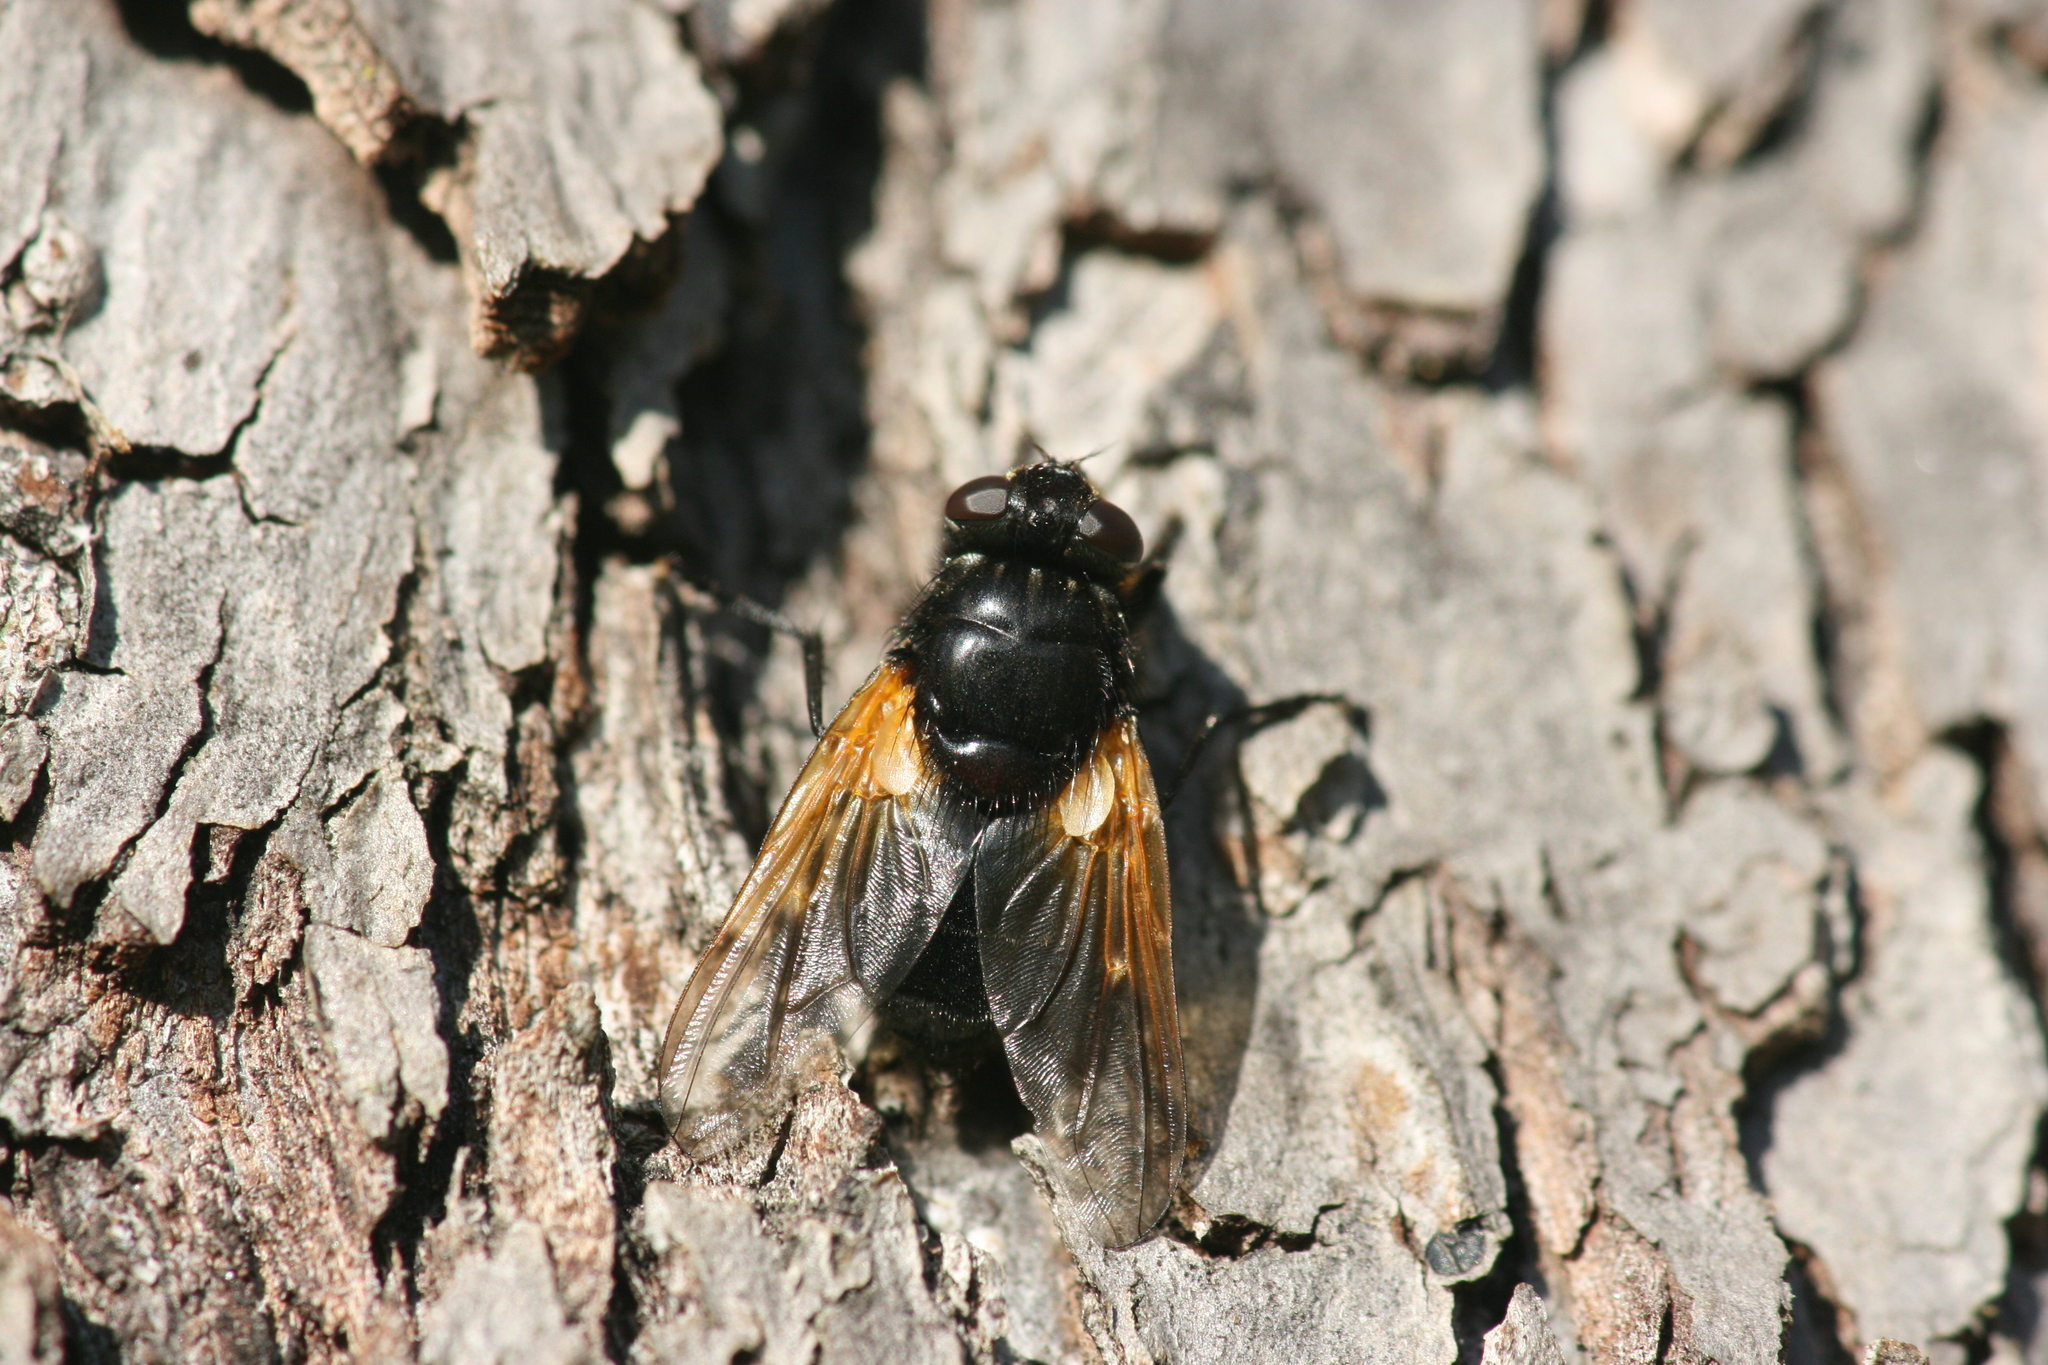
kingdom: Animalia
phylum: Arthropoda
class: Insecta
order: Diptera
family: Muscidae
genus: Mesembrina
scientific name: Mesembrina meridiana
